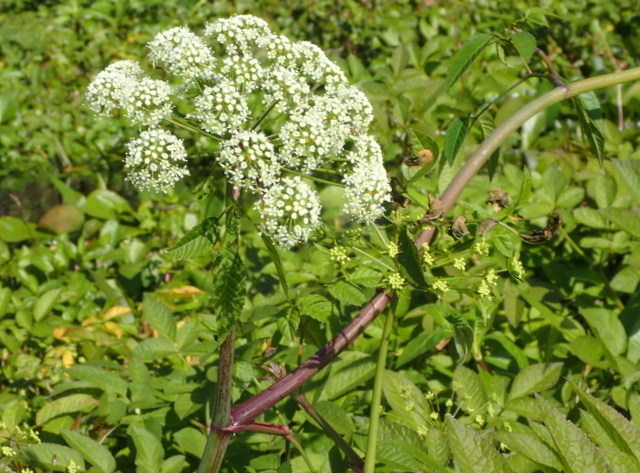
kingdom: Plantae
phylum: Tracheophyta
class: Magnoliopsida
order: Apiales
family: Apiaceae
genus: Cicuta
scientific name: Cicuta maculata
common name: Spotted cowbane
